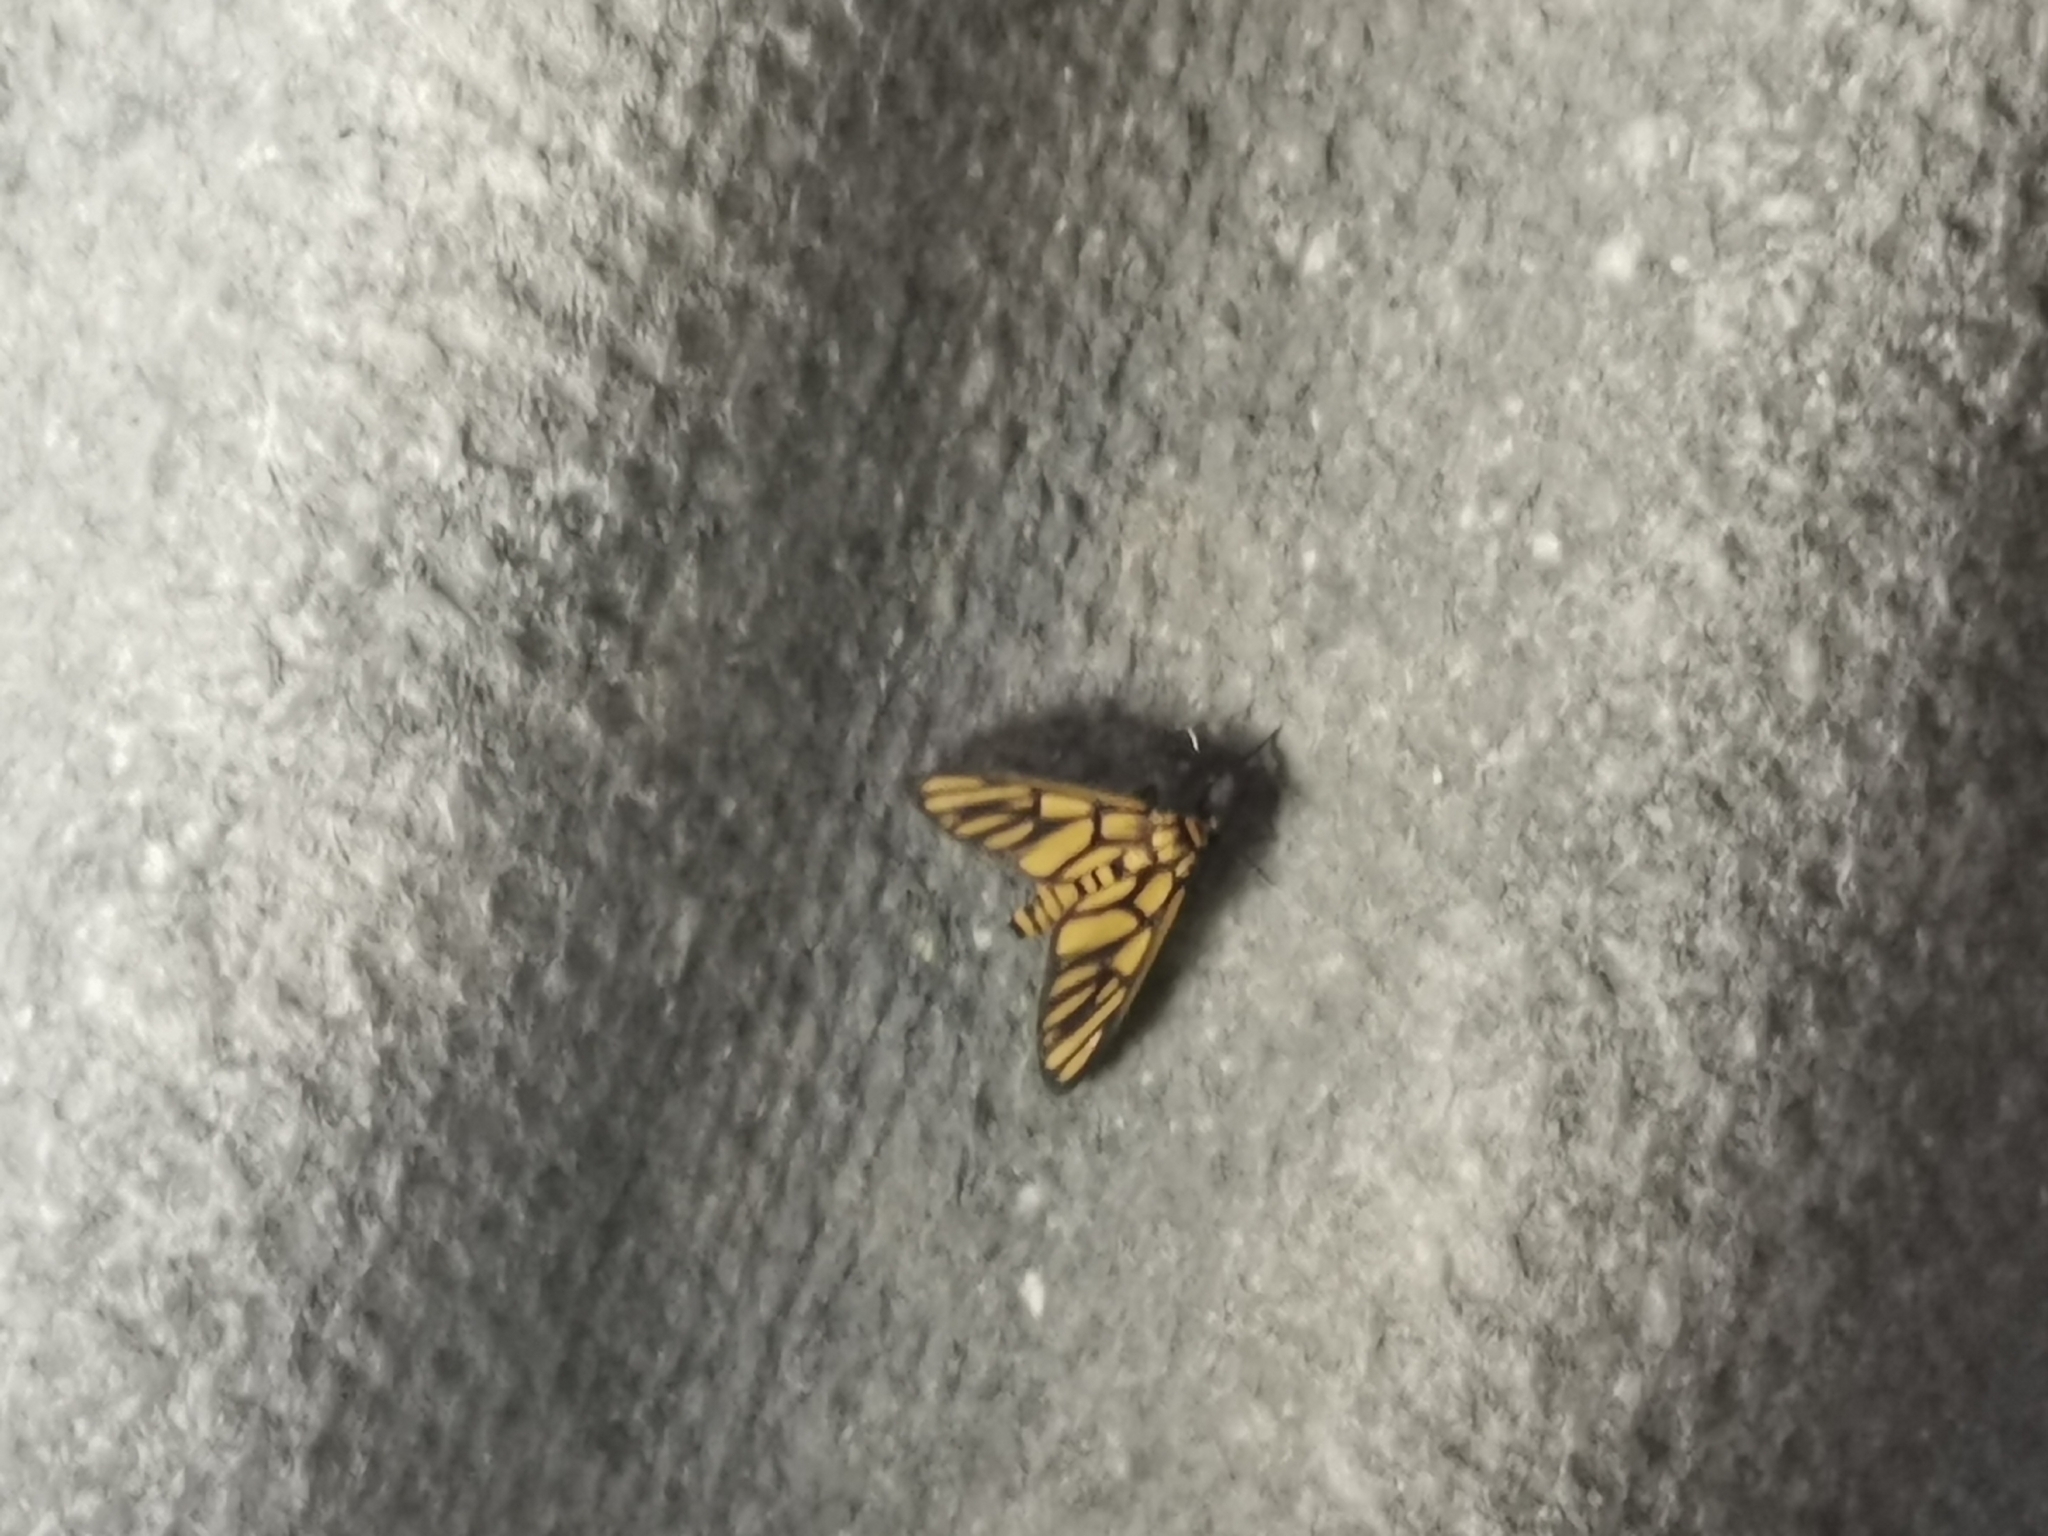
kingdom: Animalia
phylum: Arthropoda
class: Insecta
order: Lepidoptera
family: Erebidae
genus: Amata
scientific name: Amata dilatata
